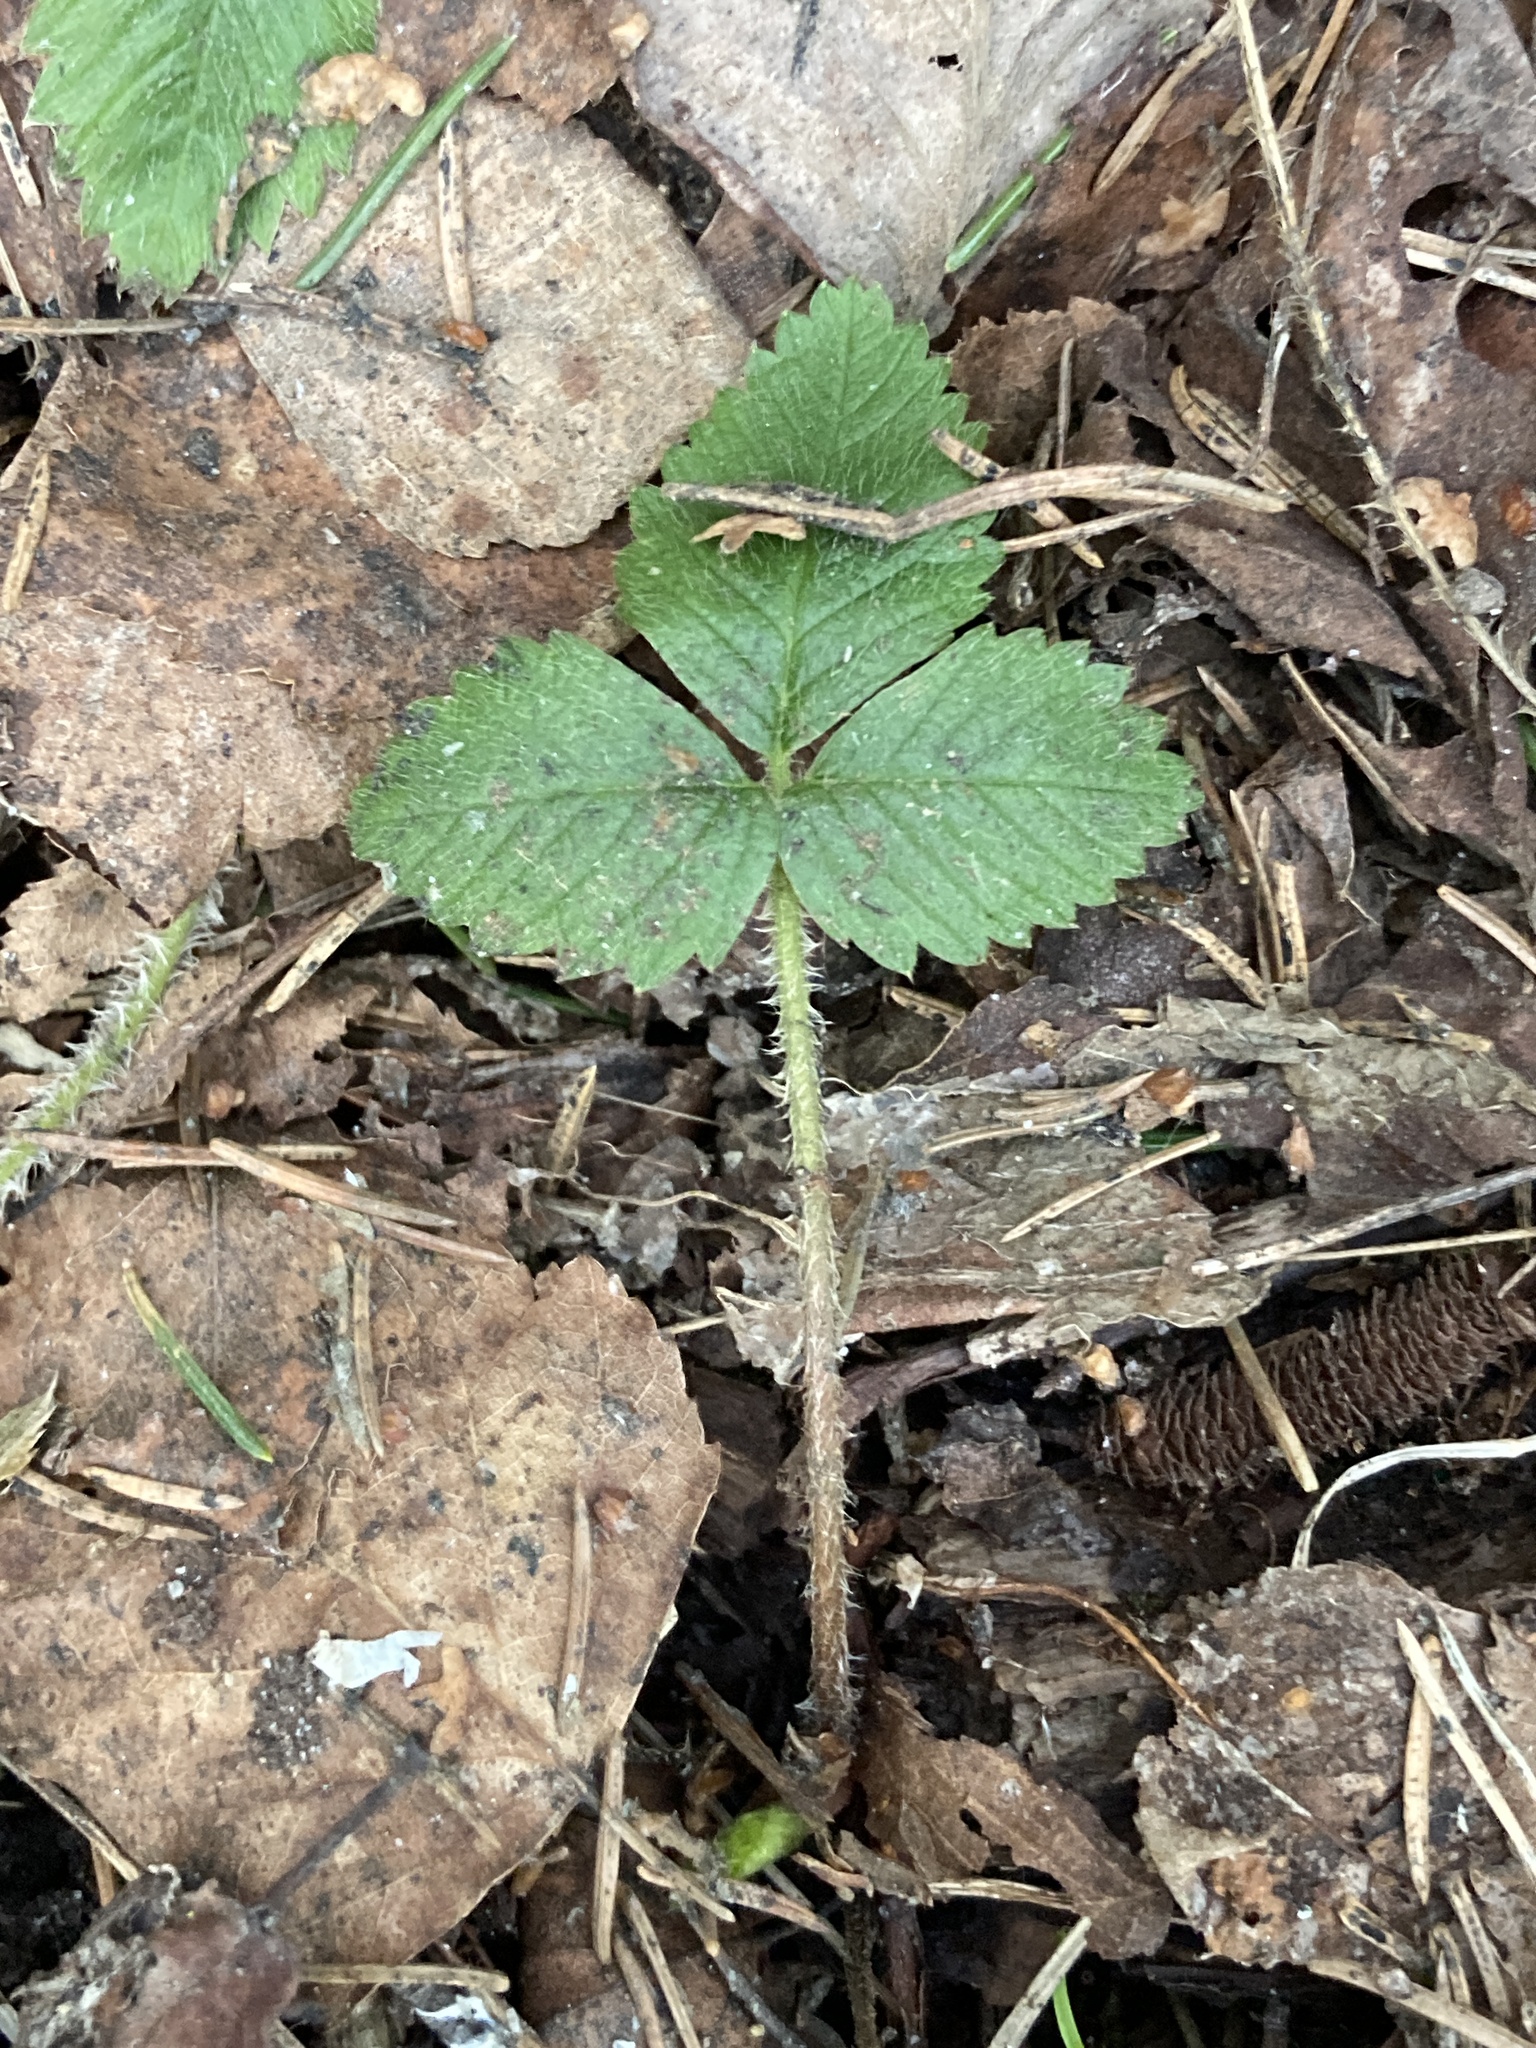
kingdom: Plantae
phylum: Tracheophyta
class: Magnoliopsida
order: Rosales
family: Rosaceae
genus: Fragaria
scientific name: Fragaria vesca
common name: Wild strawberry
